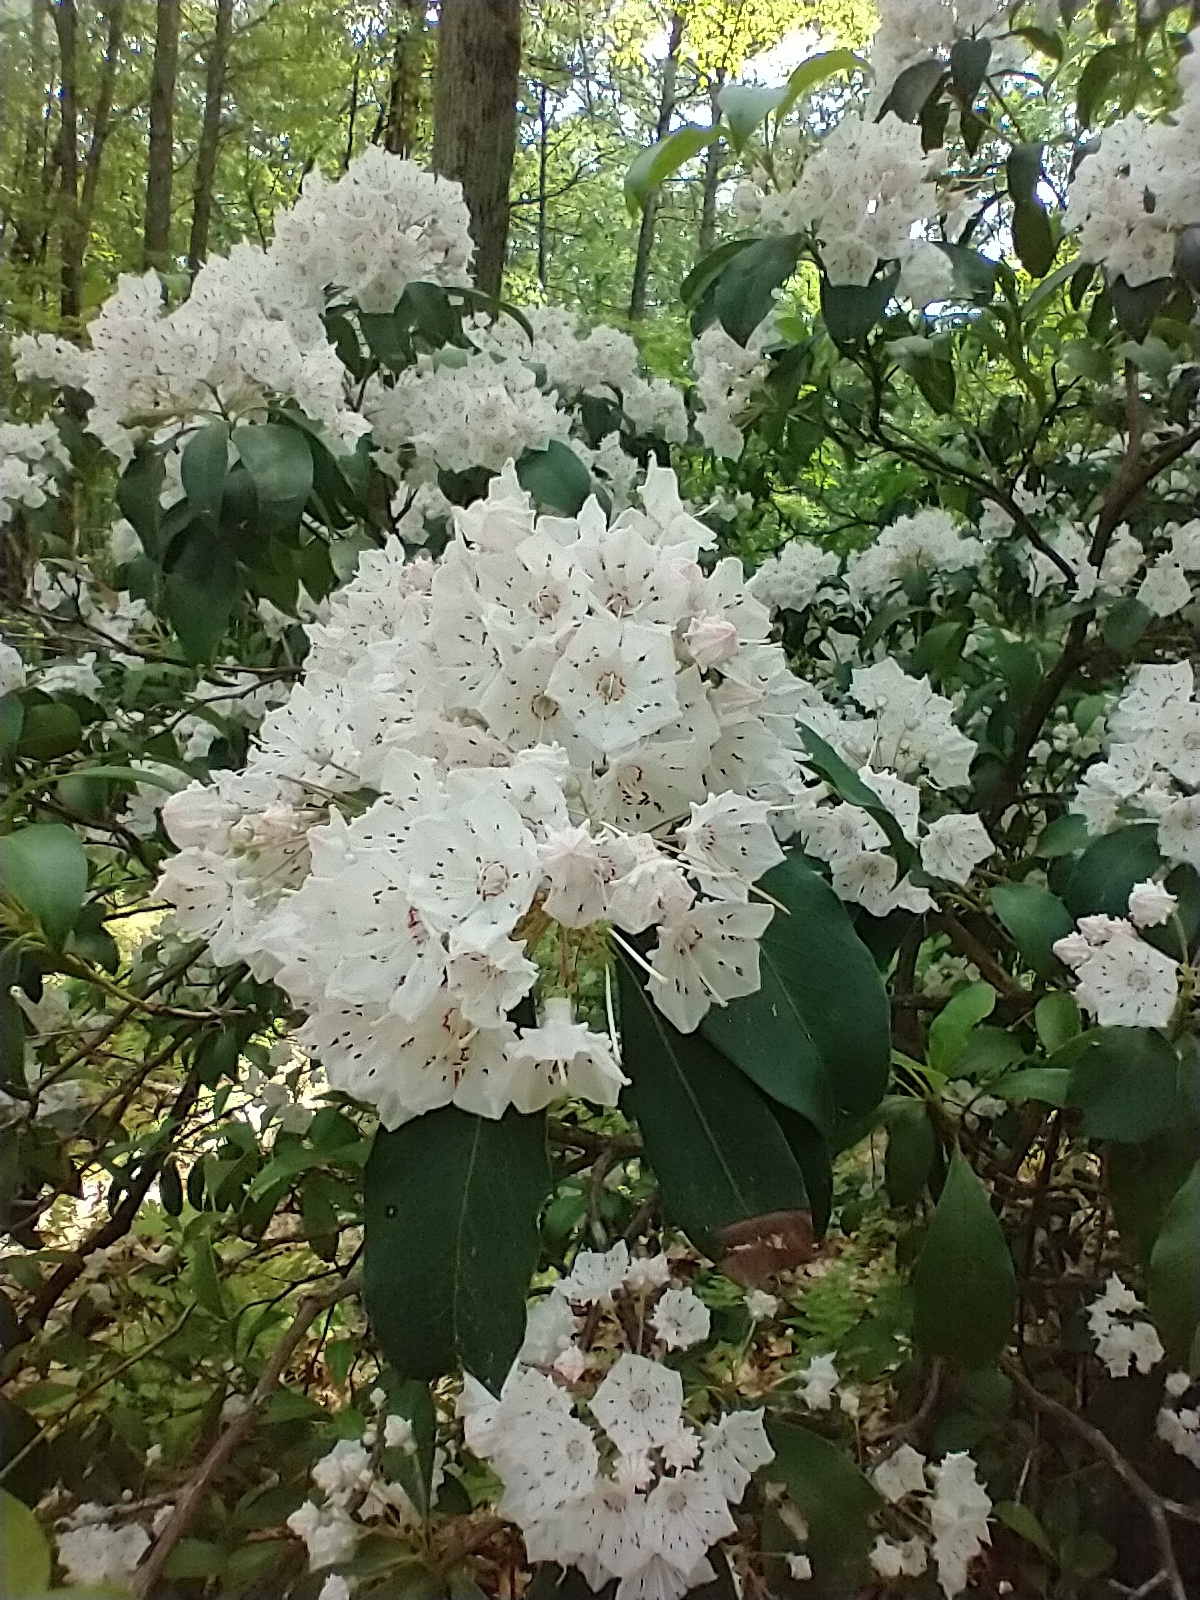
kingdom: Plantae
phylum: Tracheophyta
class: Magnoliopsida
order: Ericales
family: Ericaceae
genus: Kalmia
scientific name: Kalmia latifolia
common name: Mountain-laurel
